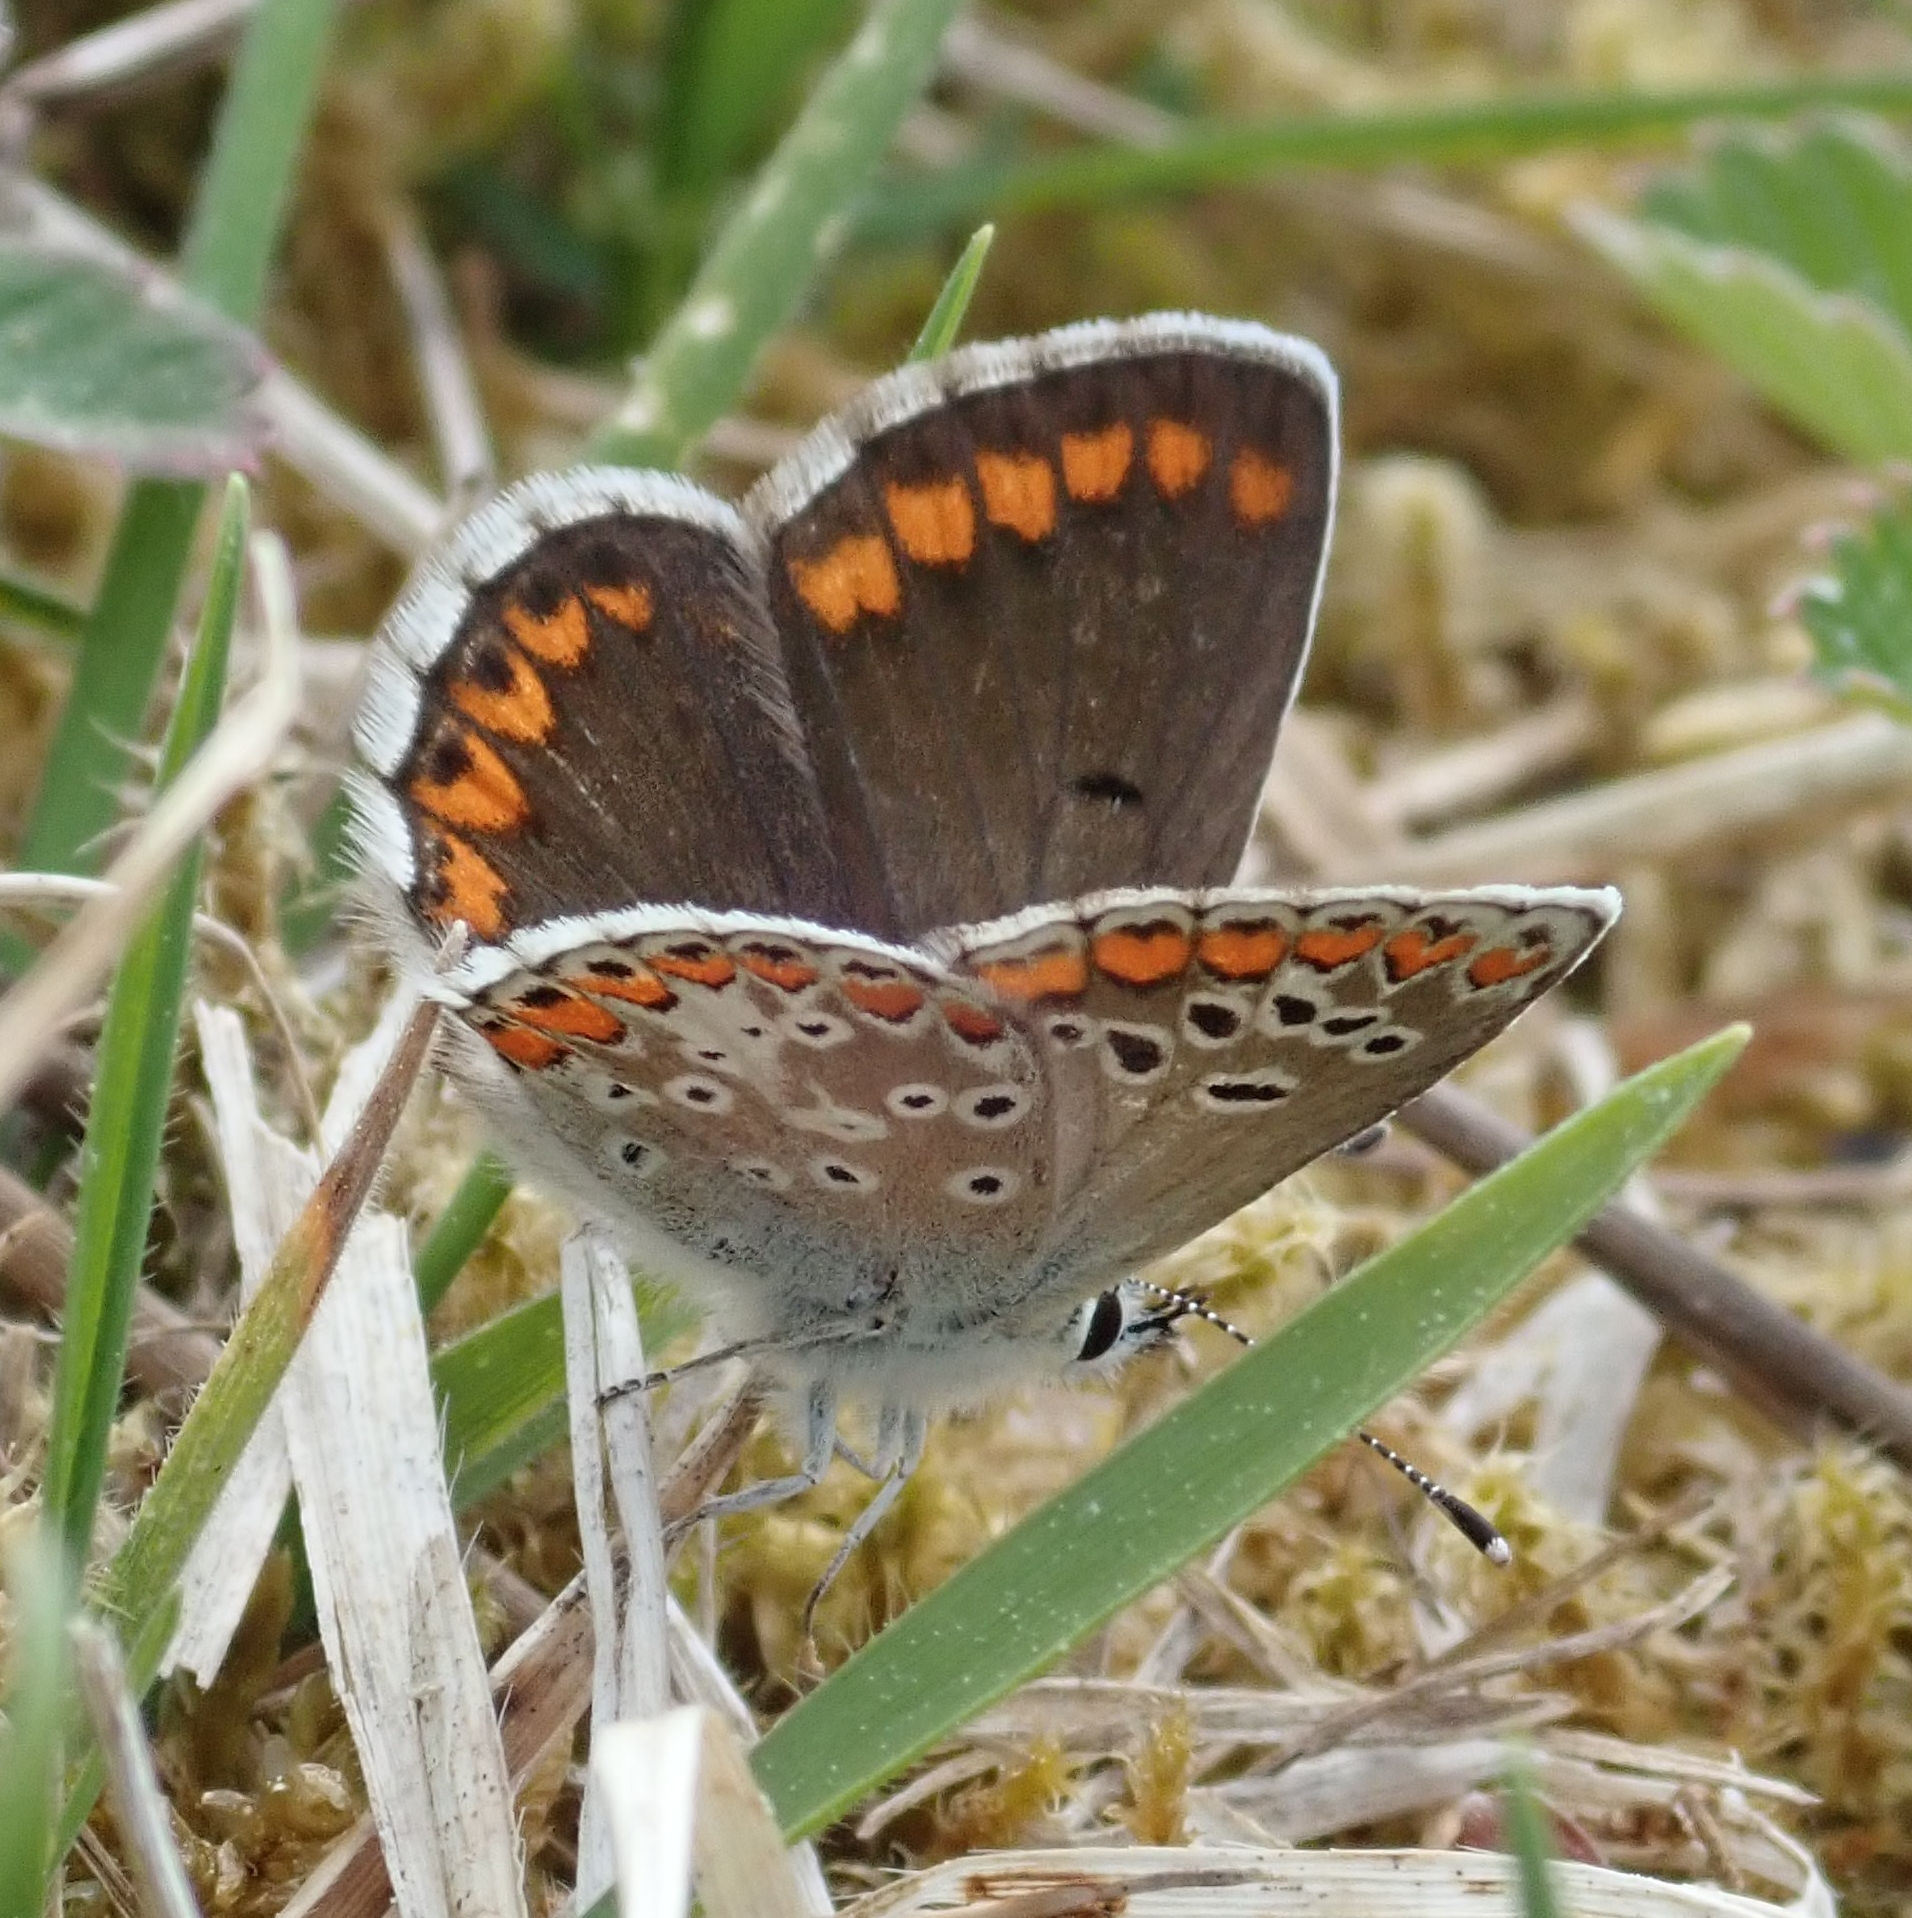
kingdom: Animalia
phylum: Arthropoda
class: Insecta
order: Lepidoptera
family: Lycaenidae
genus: Aricia
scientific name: Aricia agestis
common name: Brown argus
